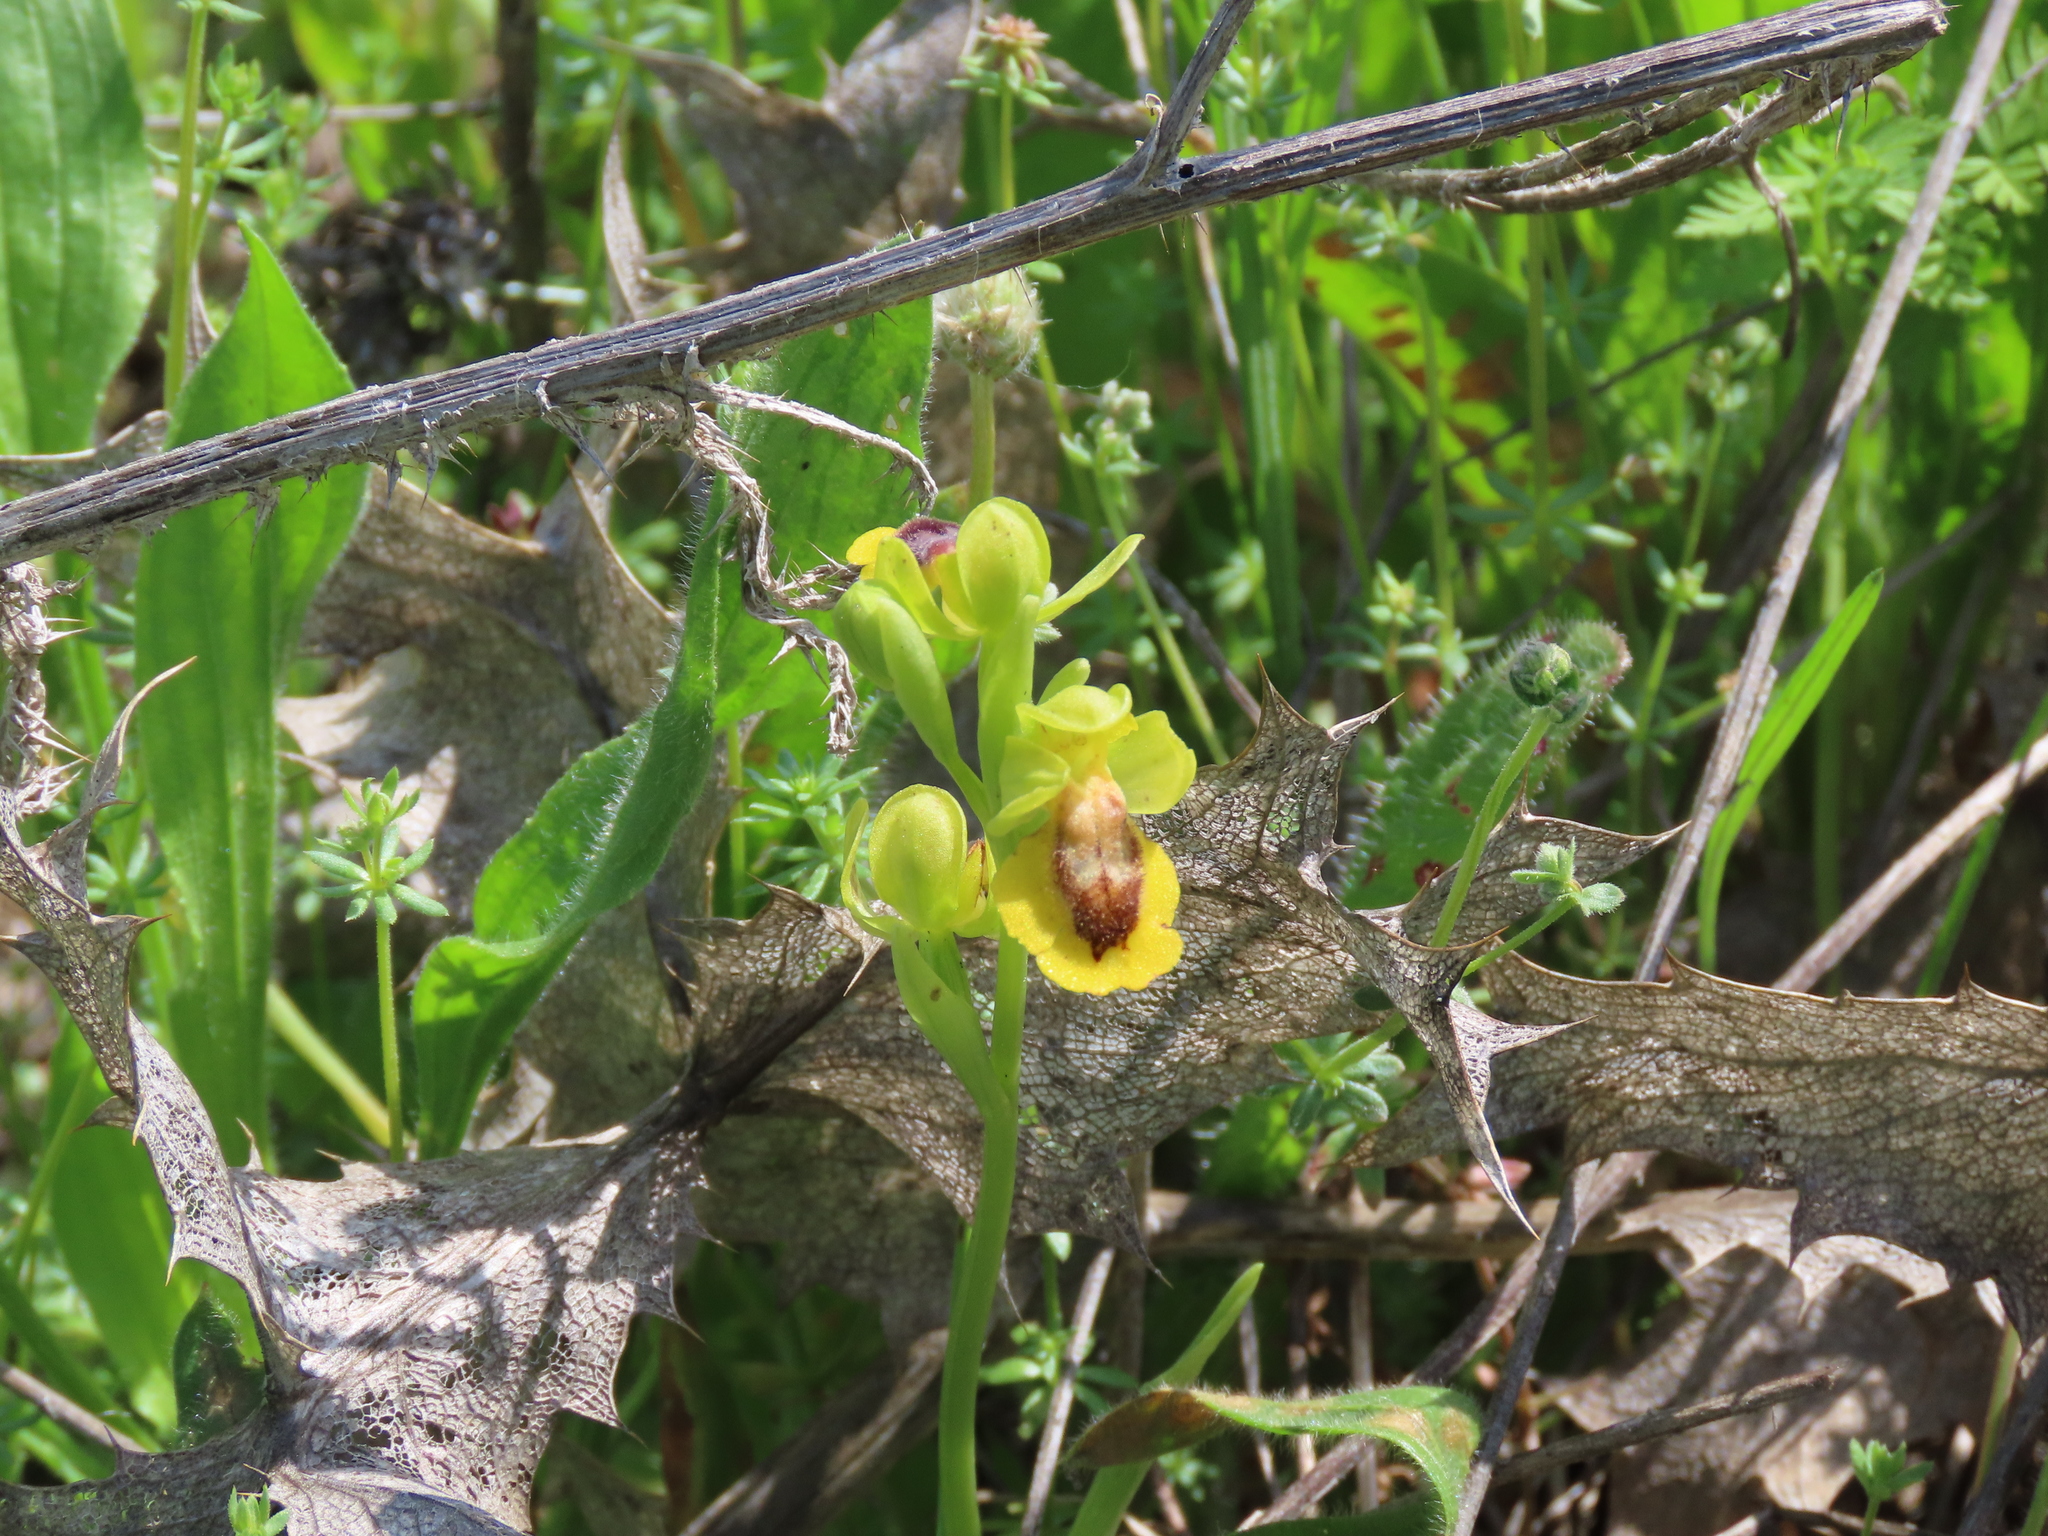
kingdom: Plantae
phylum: Tracheophyta
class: Liliopsida
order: Asparagales
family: Orchidaceae
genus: Ophrys
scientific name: Ophrys lutea
